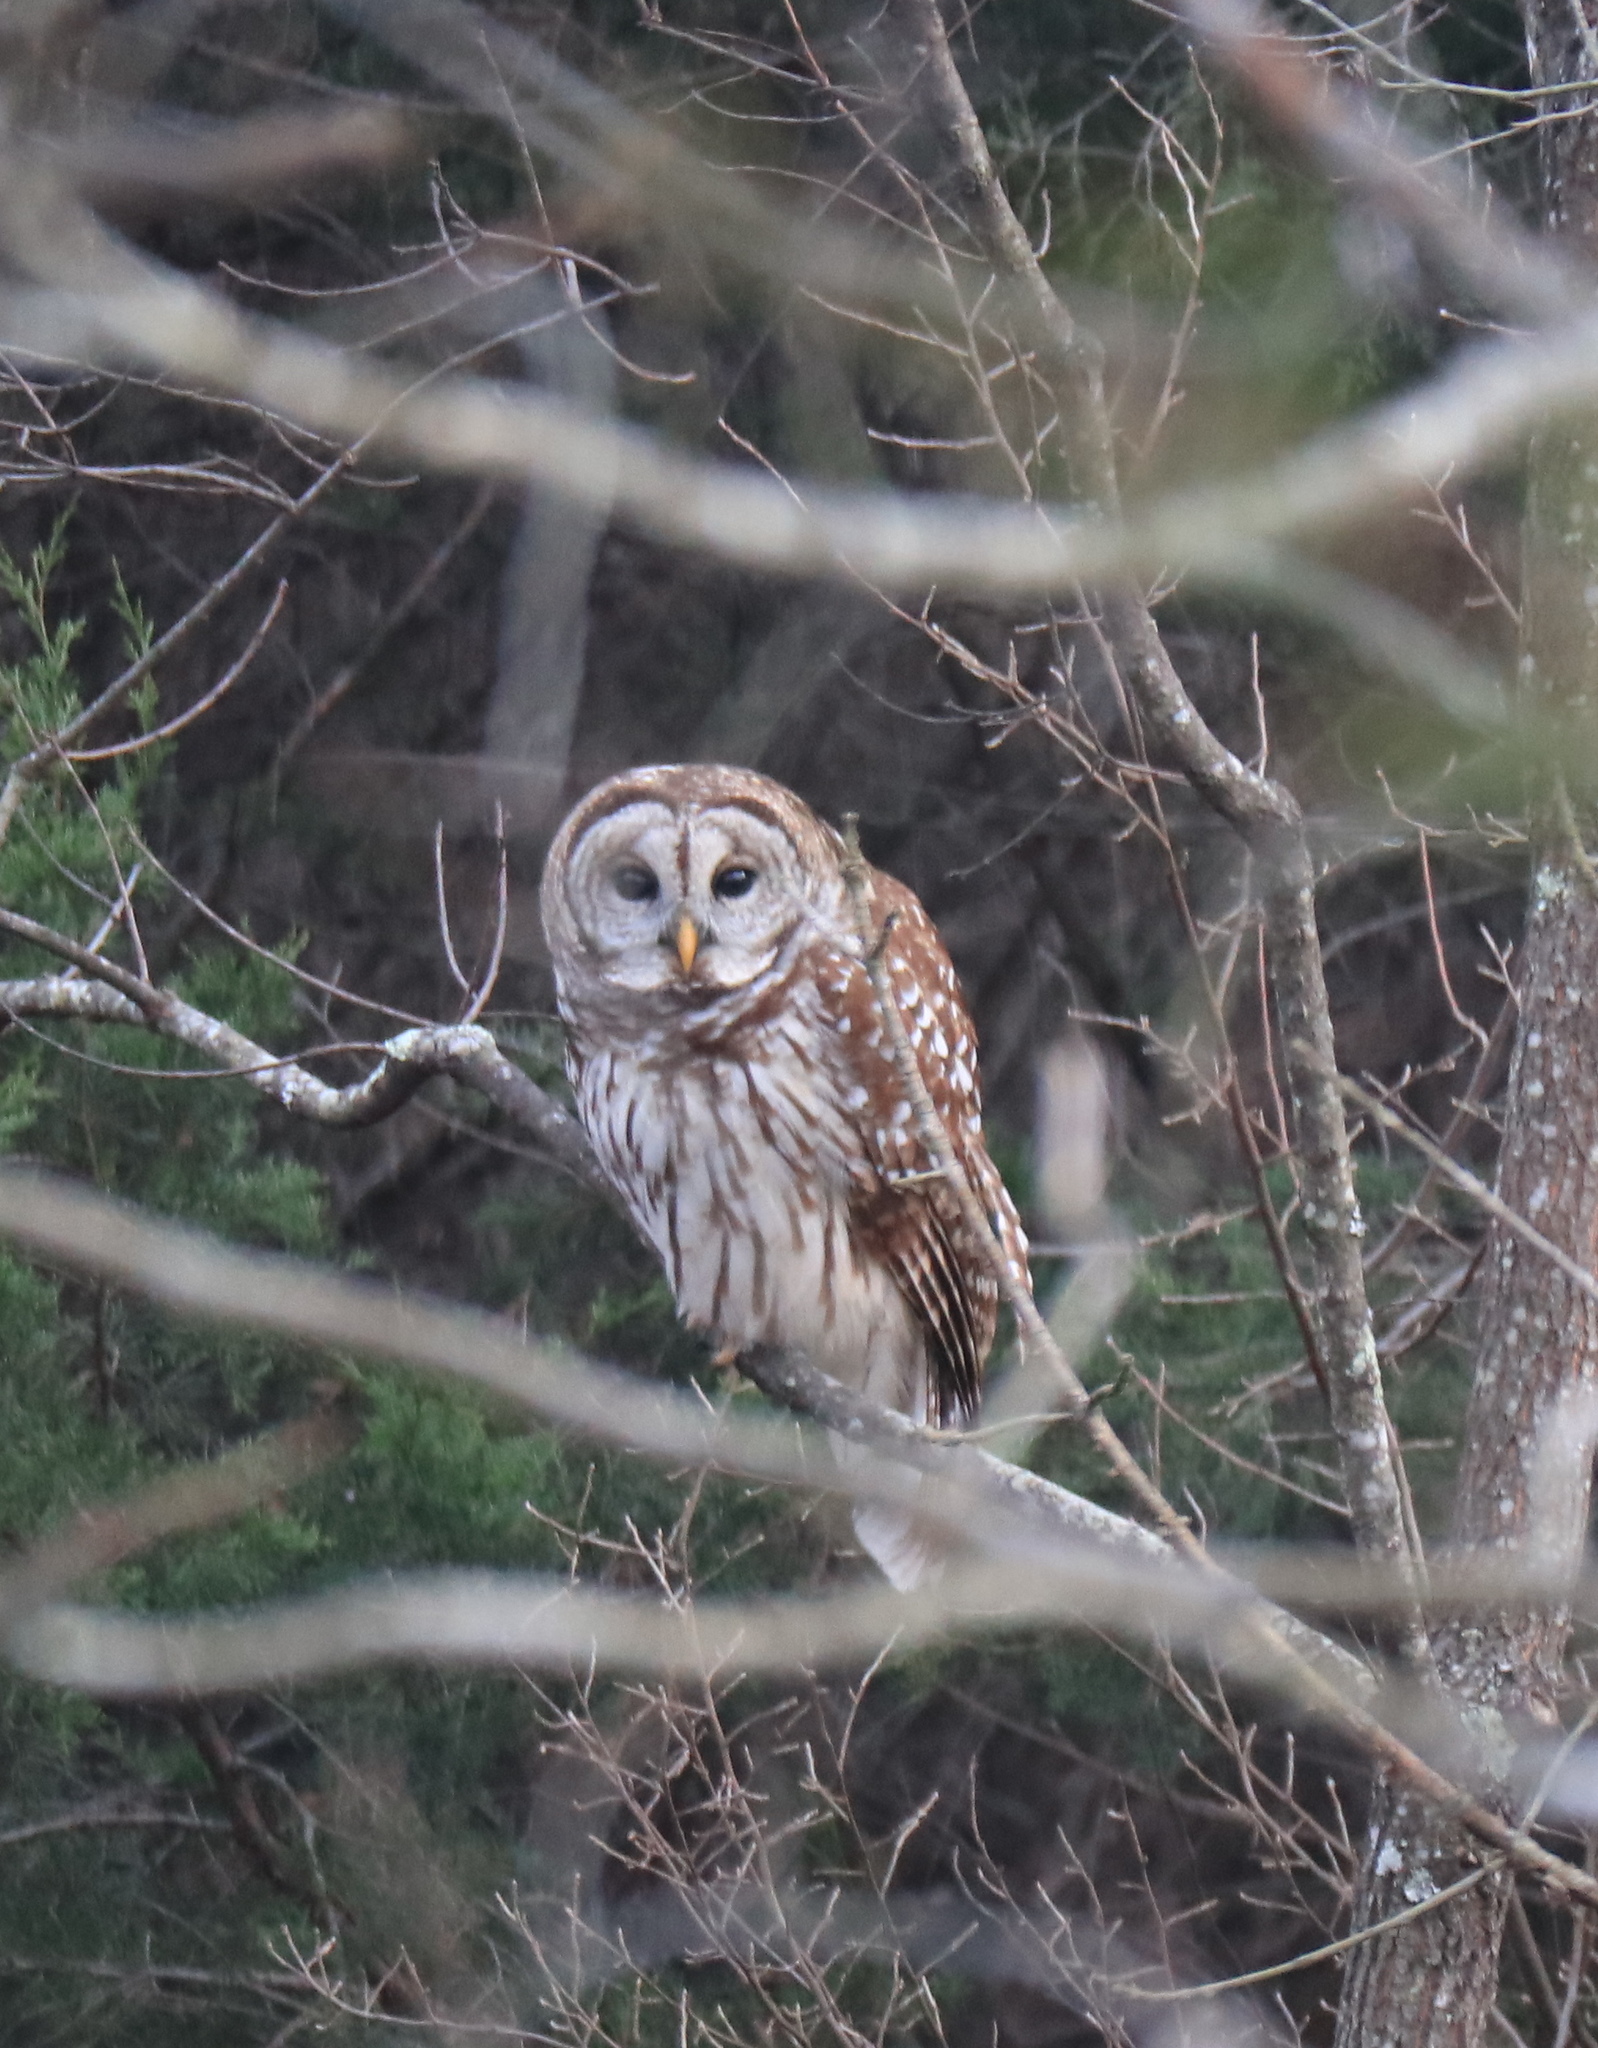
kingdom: Animalia
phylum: Chordata
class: Aves
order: Strigiformes
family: Strigidae
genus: Strix
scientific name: Strix varia
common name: Barred owl
